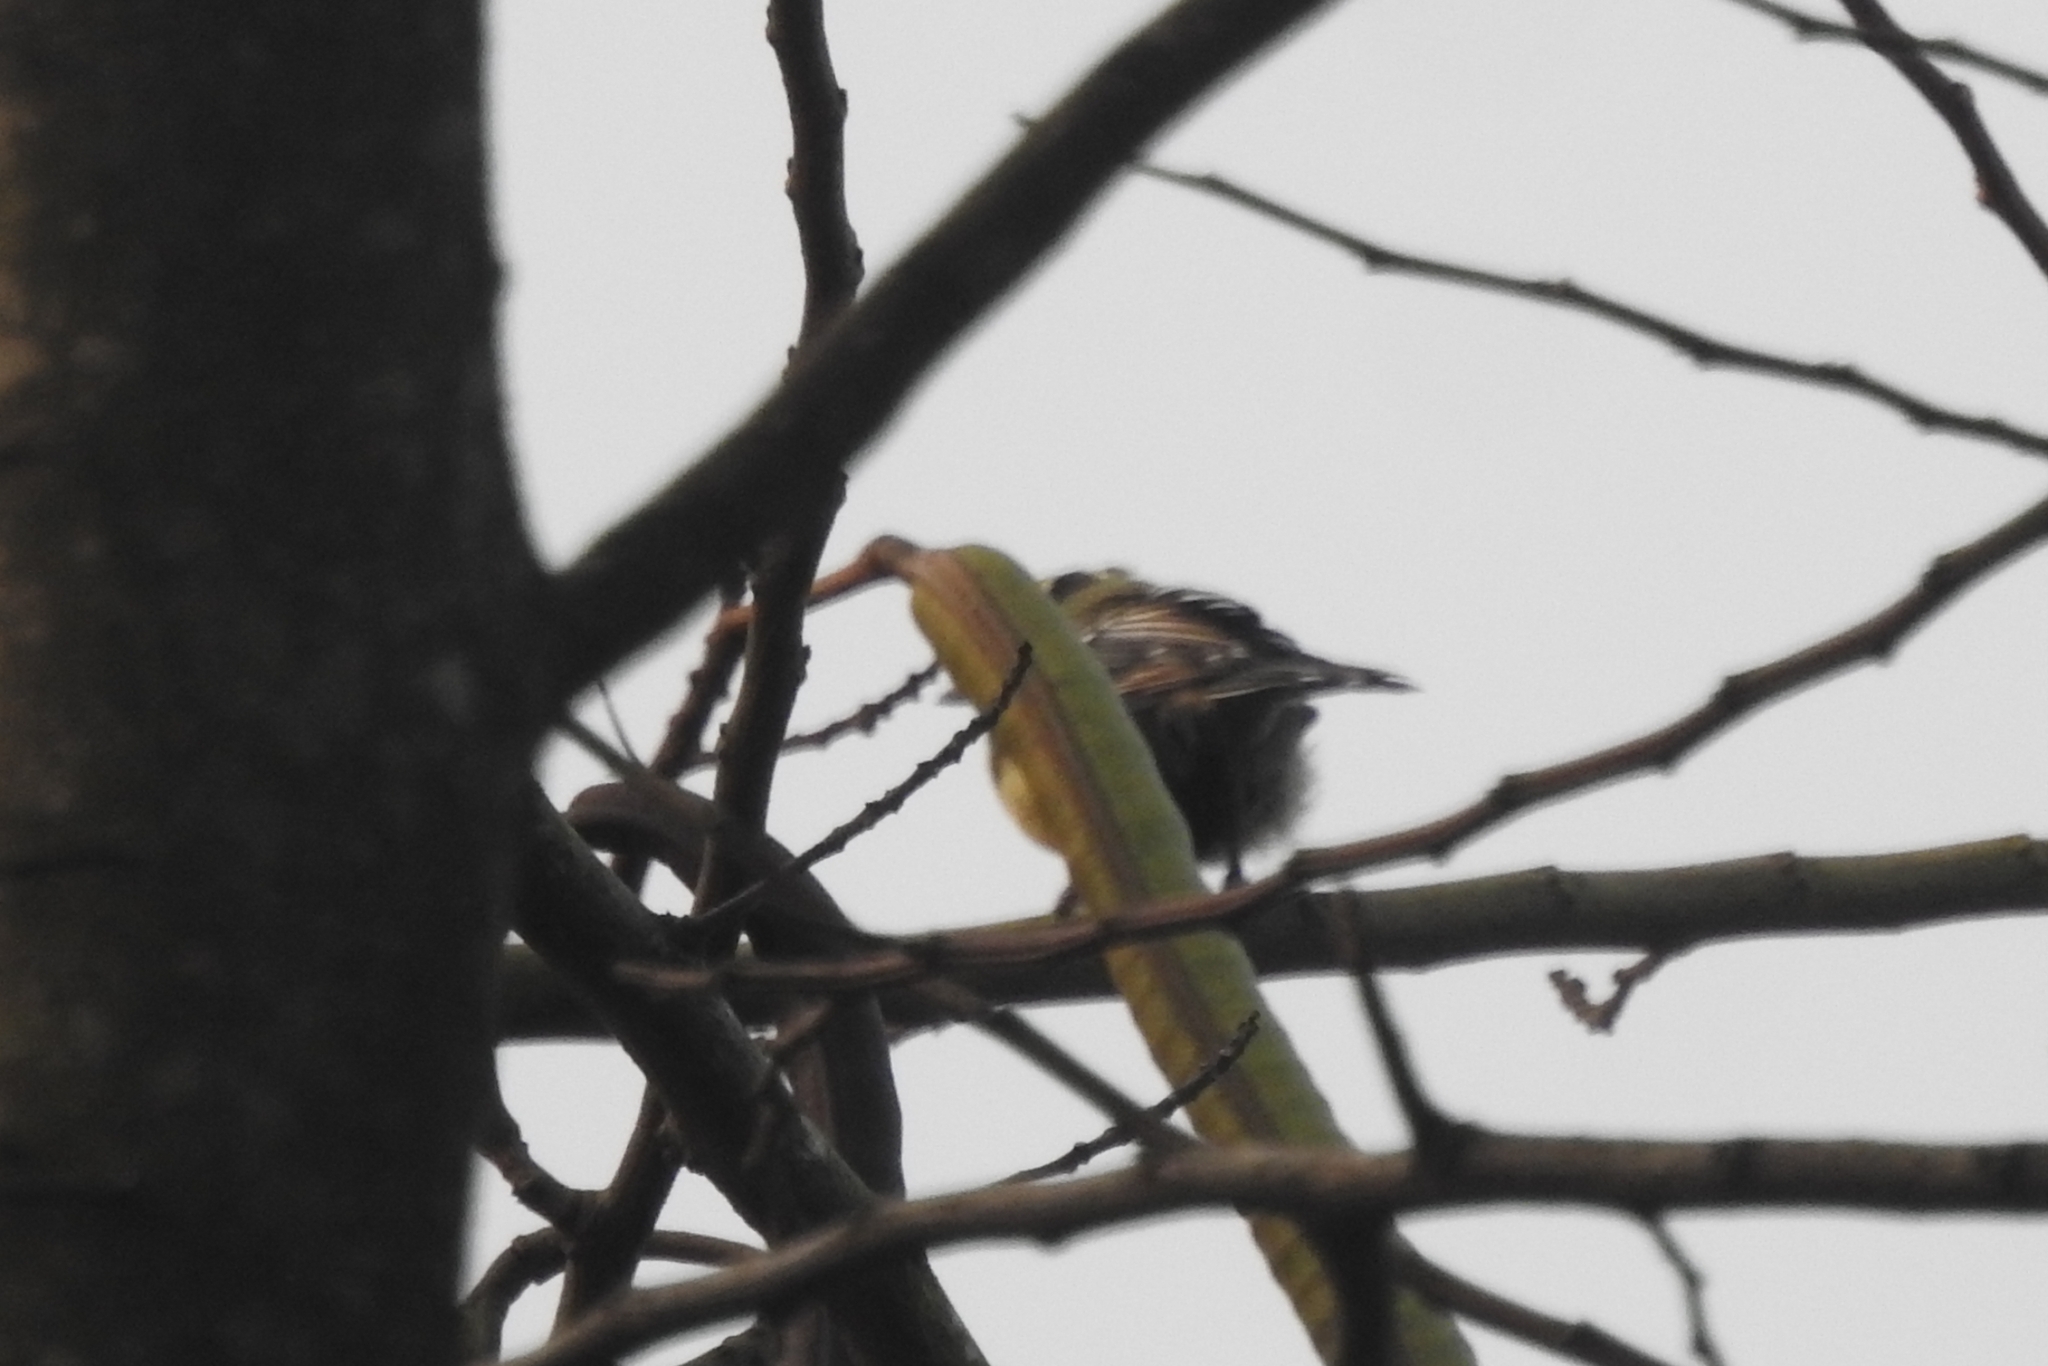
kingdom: Animalia
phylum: Chordata
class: Aves
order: Passeriformes
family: Aegithinidae
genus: Aegithina
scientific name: Aegithina tiphia
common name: Common iora
